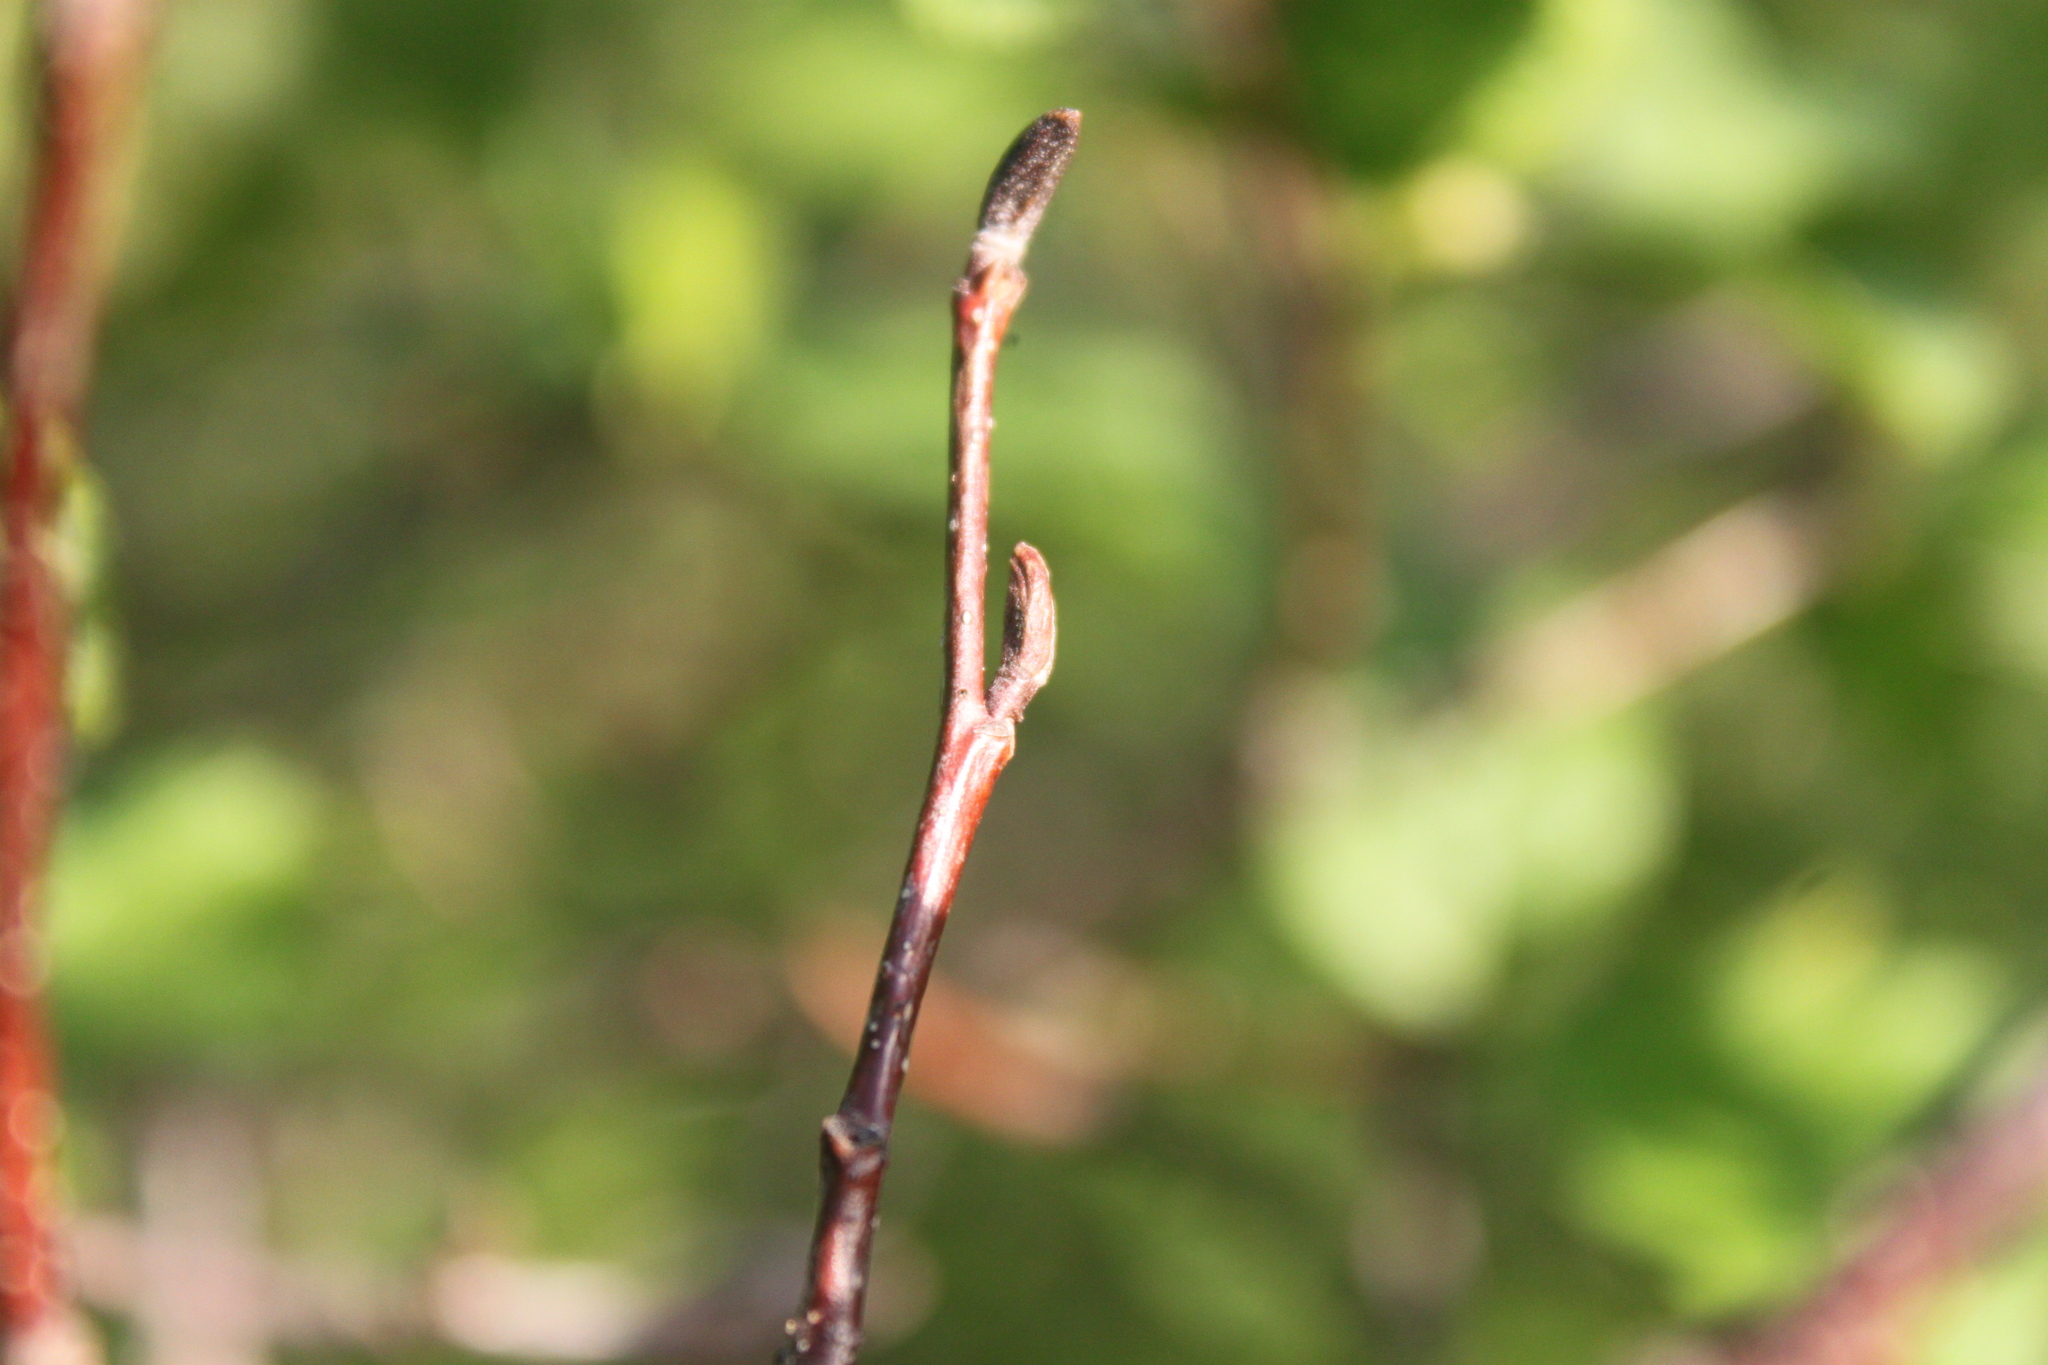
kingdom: Plantae
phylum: Tracheophyta
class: Magnoliopsida
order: Fagales
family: Betulaceae
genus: Alnus
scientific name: Alnus incana
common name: Grey alder
